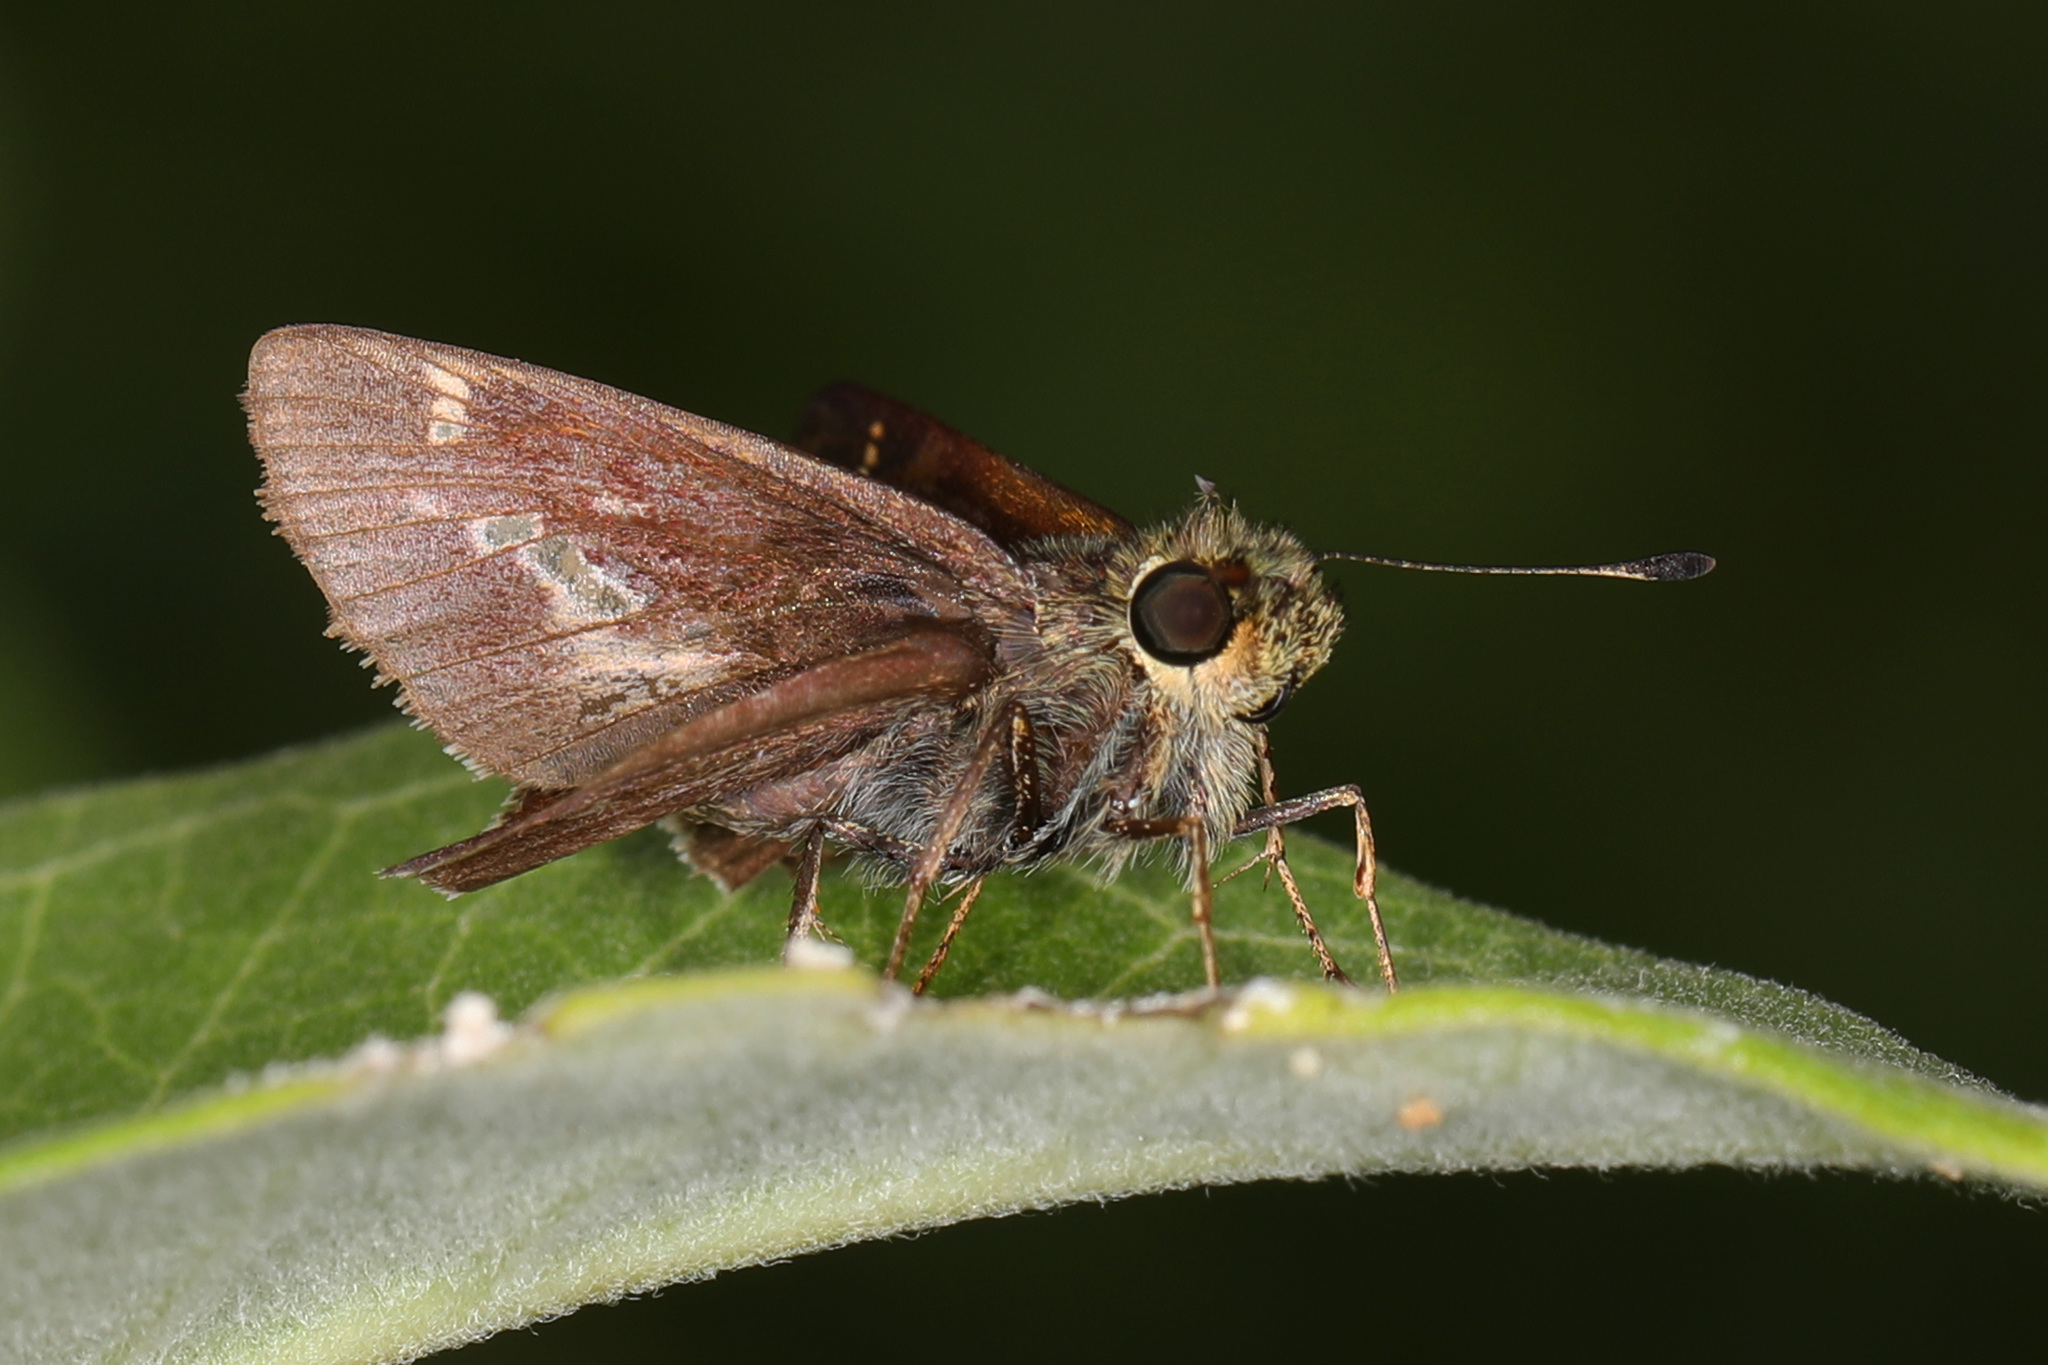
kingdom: Animalia
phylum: Arthropoda
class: Insecta
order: Lepidoptera
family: Hesperiidae
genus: Vernia
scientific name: Vernia verna
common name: Little glassywing
